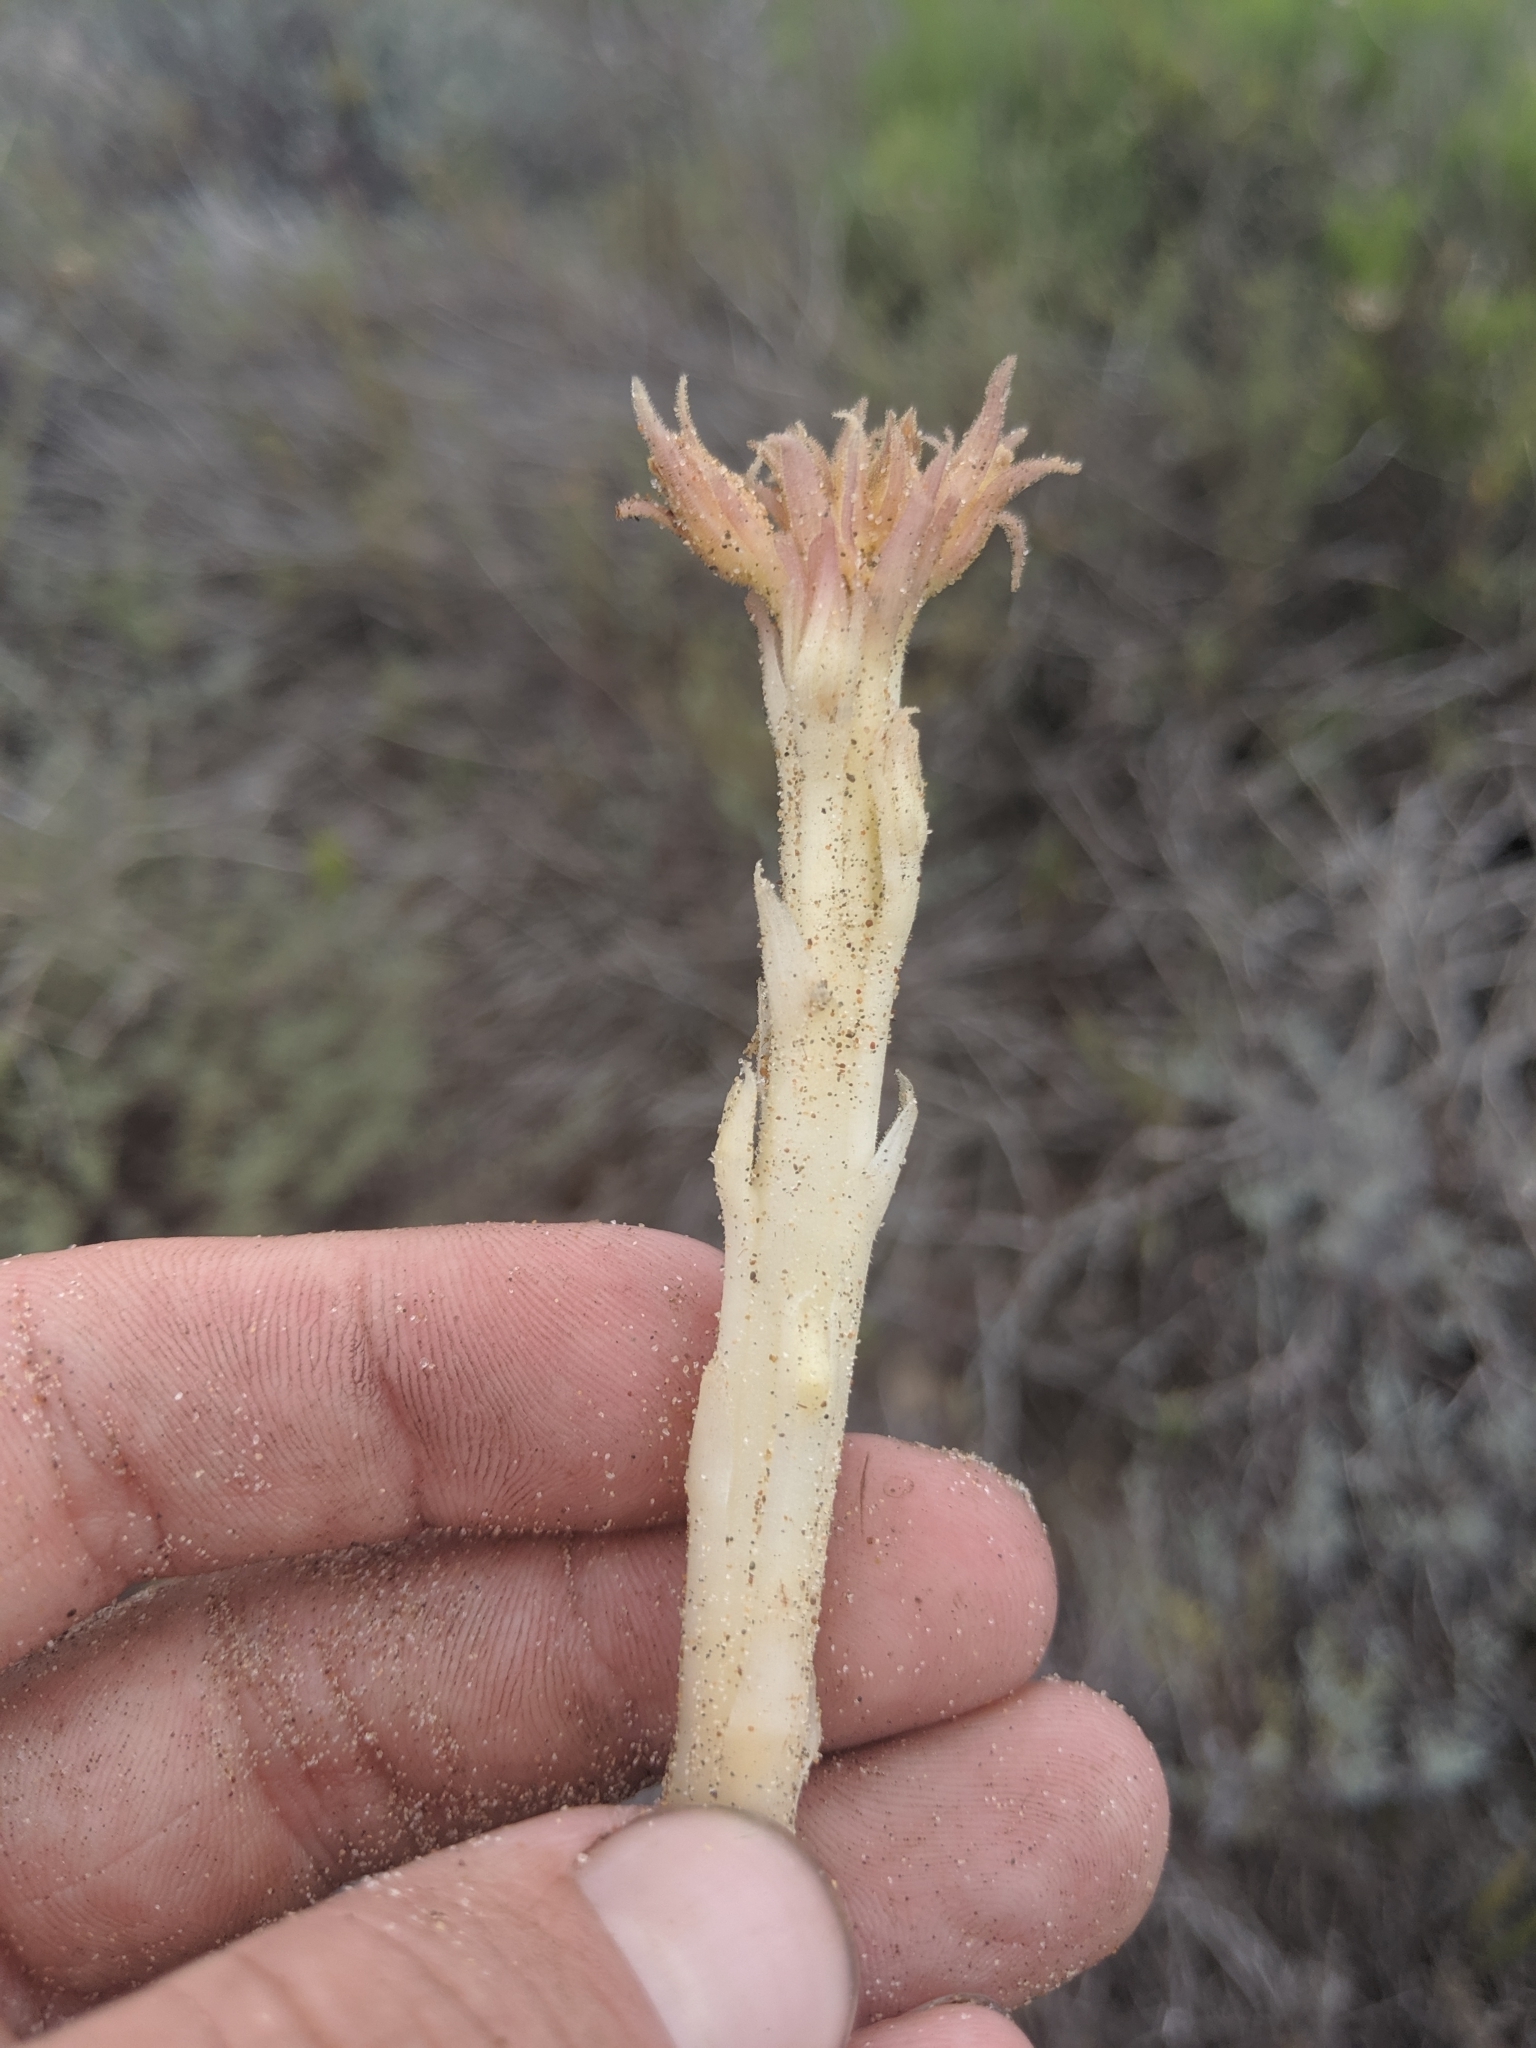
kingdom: Plantae
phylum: Tracheophyta
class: Magnoliopsida
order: Lamiales
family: Orobanchaceae
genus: Aphyllon
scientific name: Aphyllon californicum
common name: California broomrape
